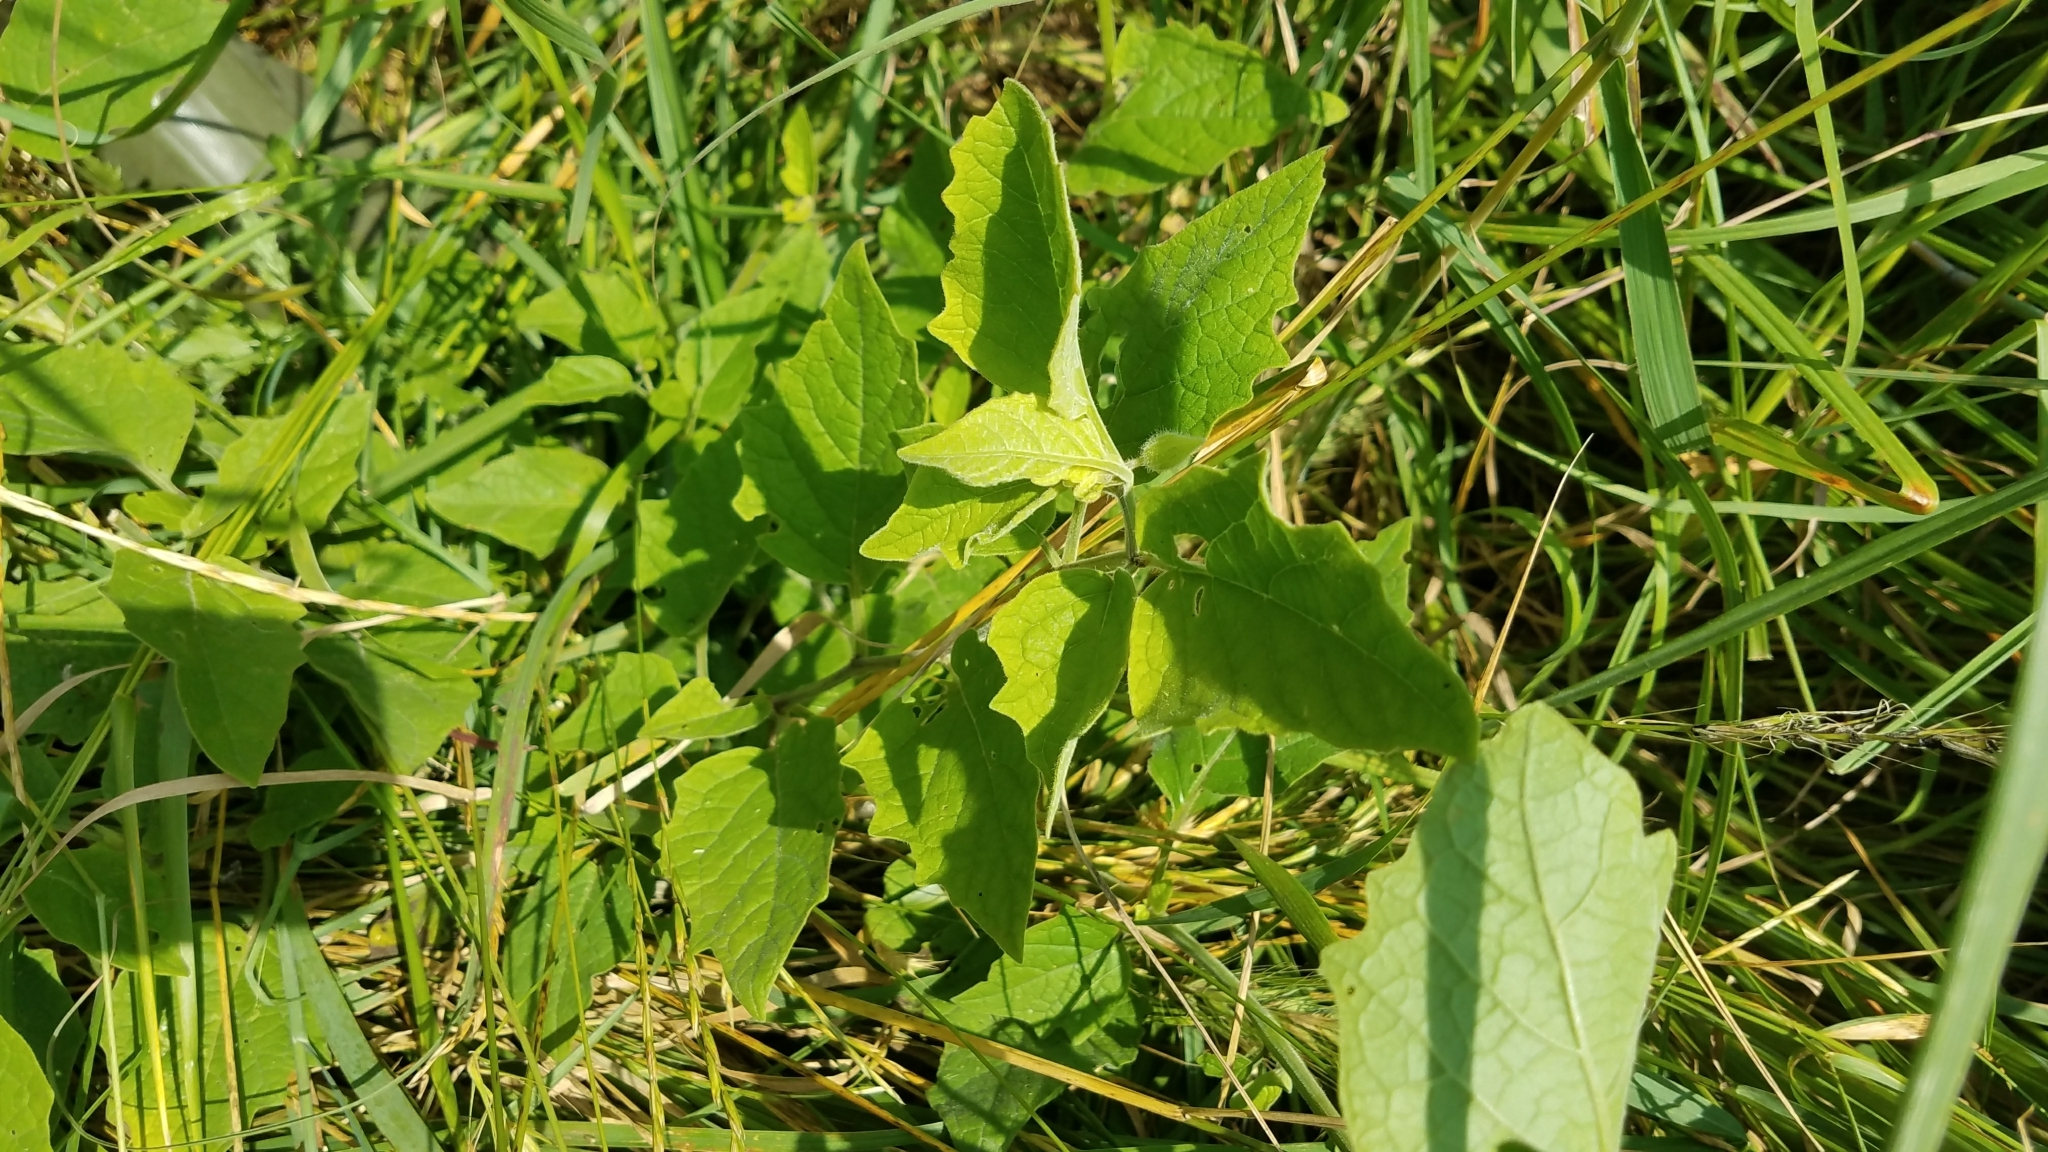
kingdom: Plantae
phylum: Tracheophyta
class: Magnoliopsida
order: Solanales
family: Solanaceae
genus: Physalis
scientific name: Physalis heterophylla
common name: Clammy ground-cherry
